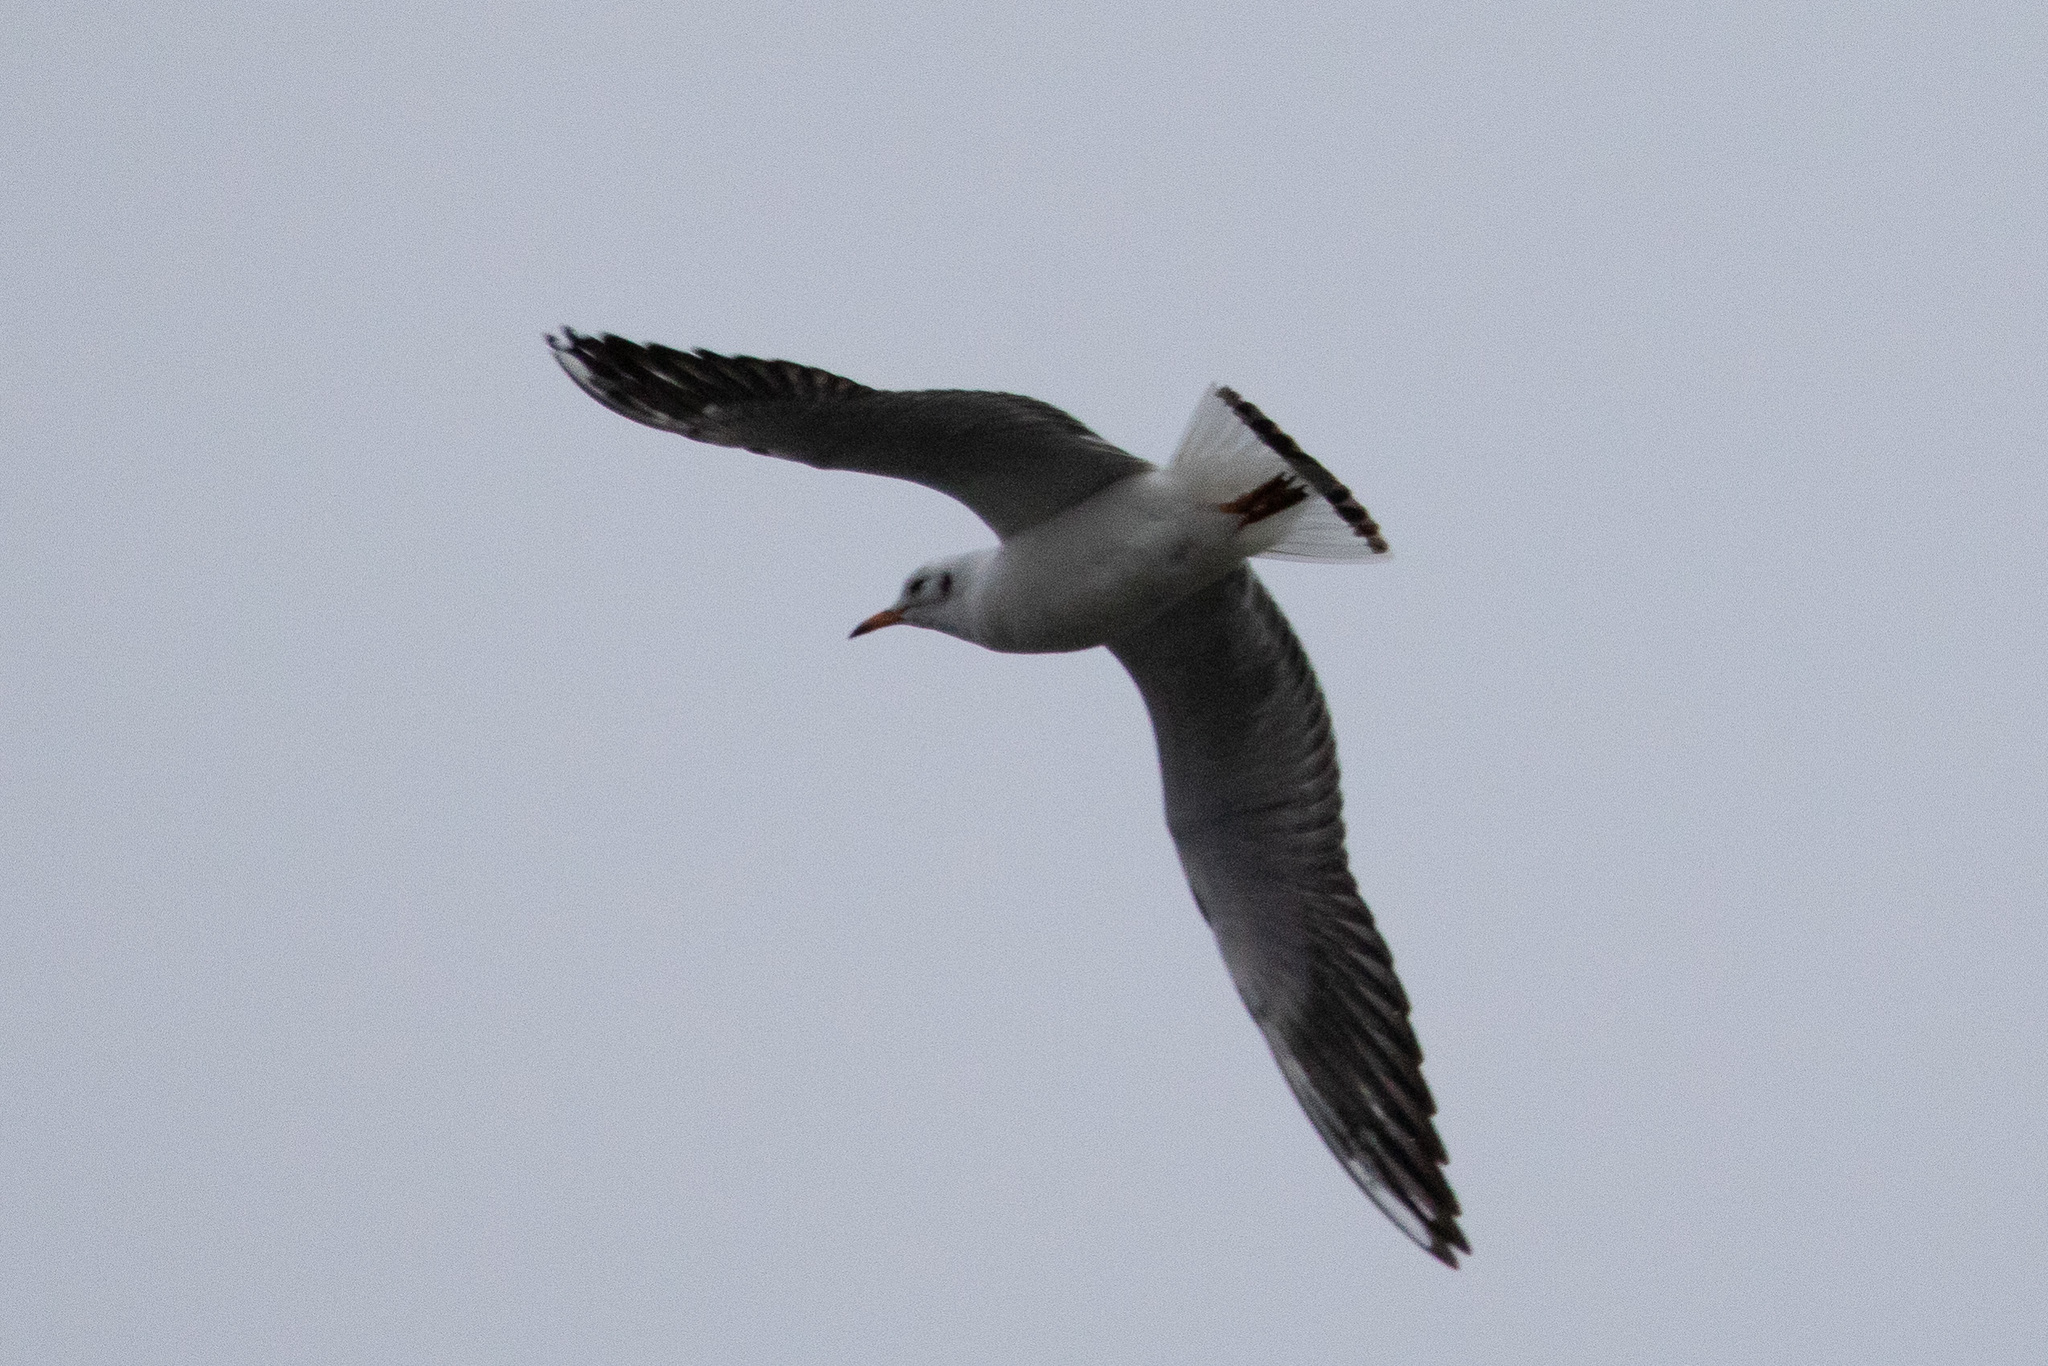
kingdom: Animalia
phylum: Chordata
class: Aves
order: Charadriiformes
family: Laridae
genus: Chroicocephalus
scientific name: Chroicocephalus ridibundus
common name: Black-headed gull
